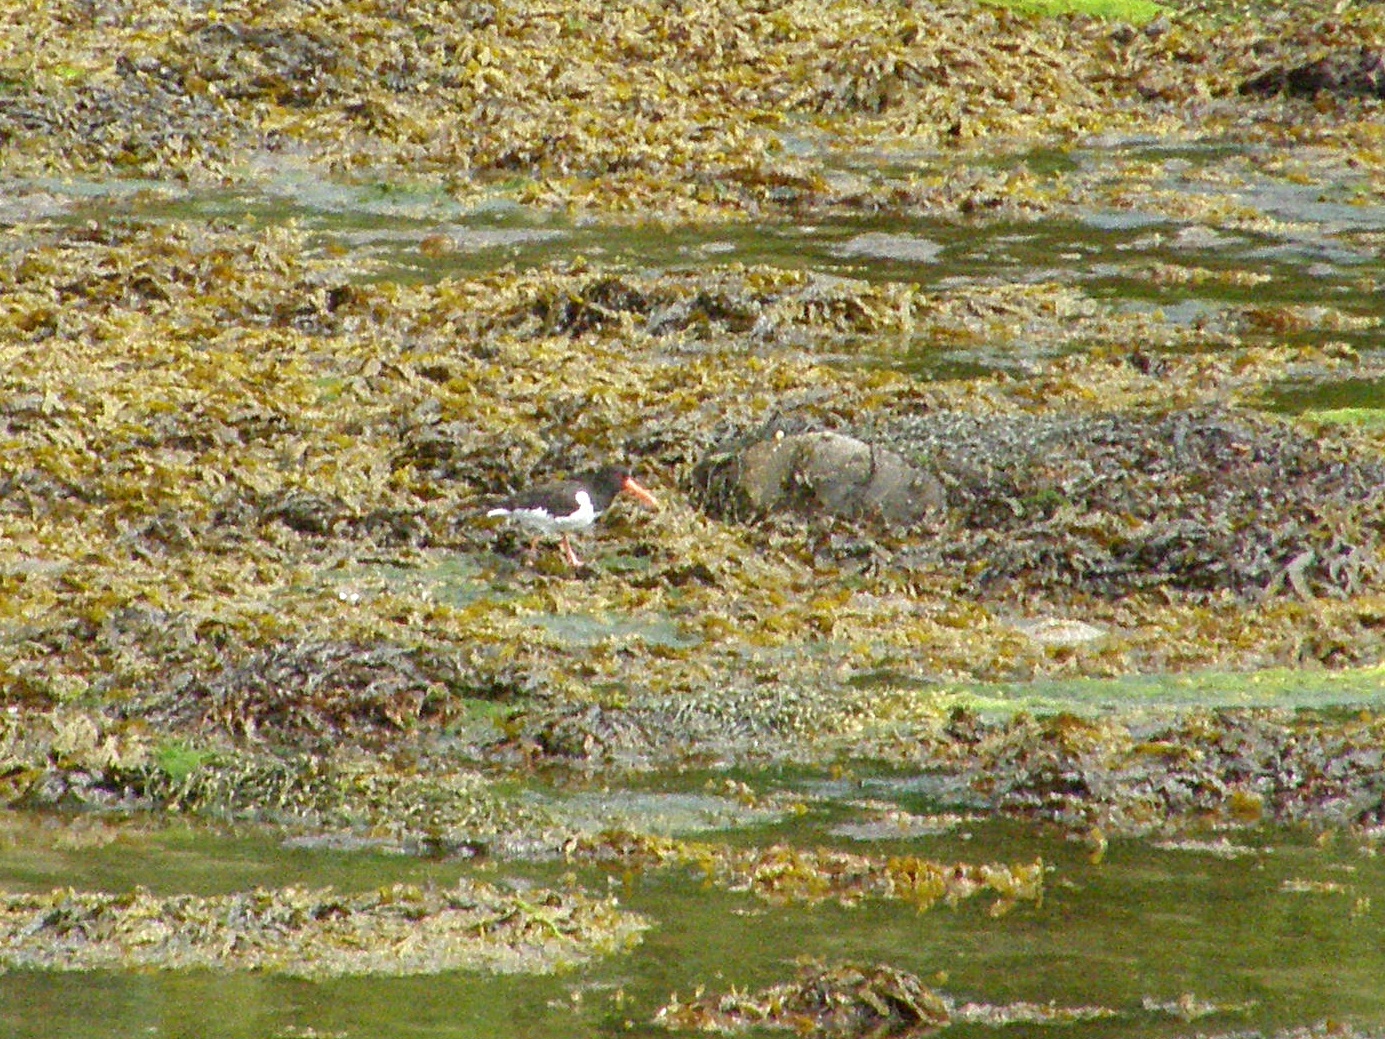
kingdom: Animalia
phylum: Chordata
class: Aves
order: Charadriiformes
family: Haematopodidae
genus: Haematopus
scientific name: Haematopus ostralegus
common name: Eurasian oystercatcher
